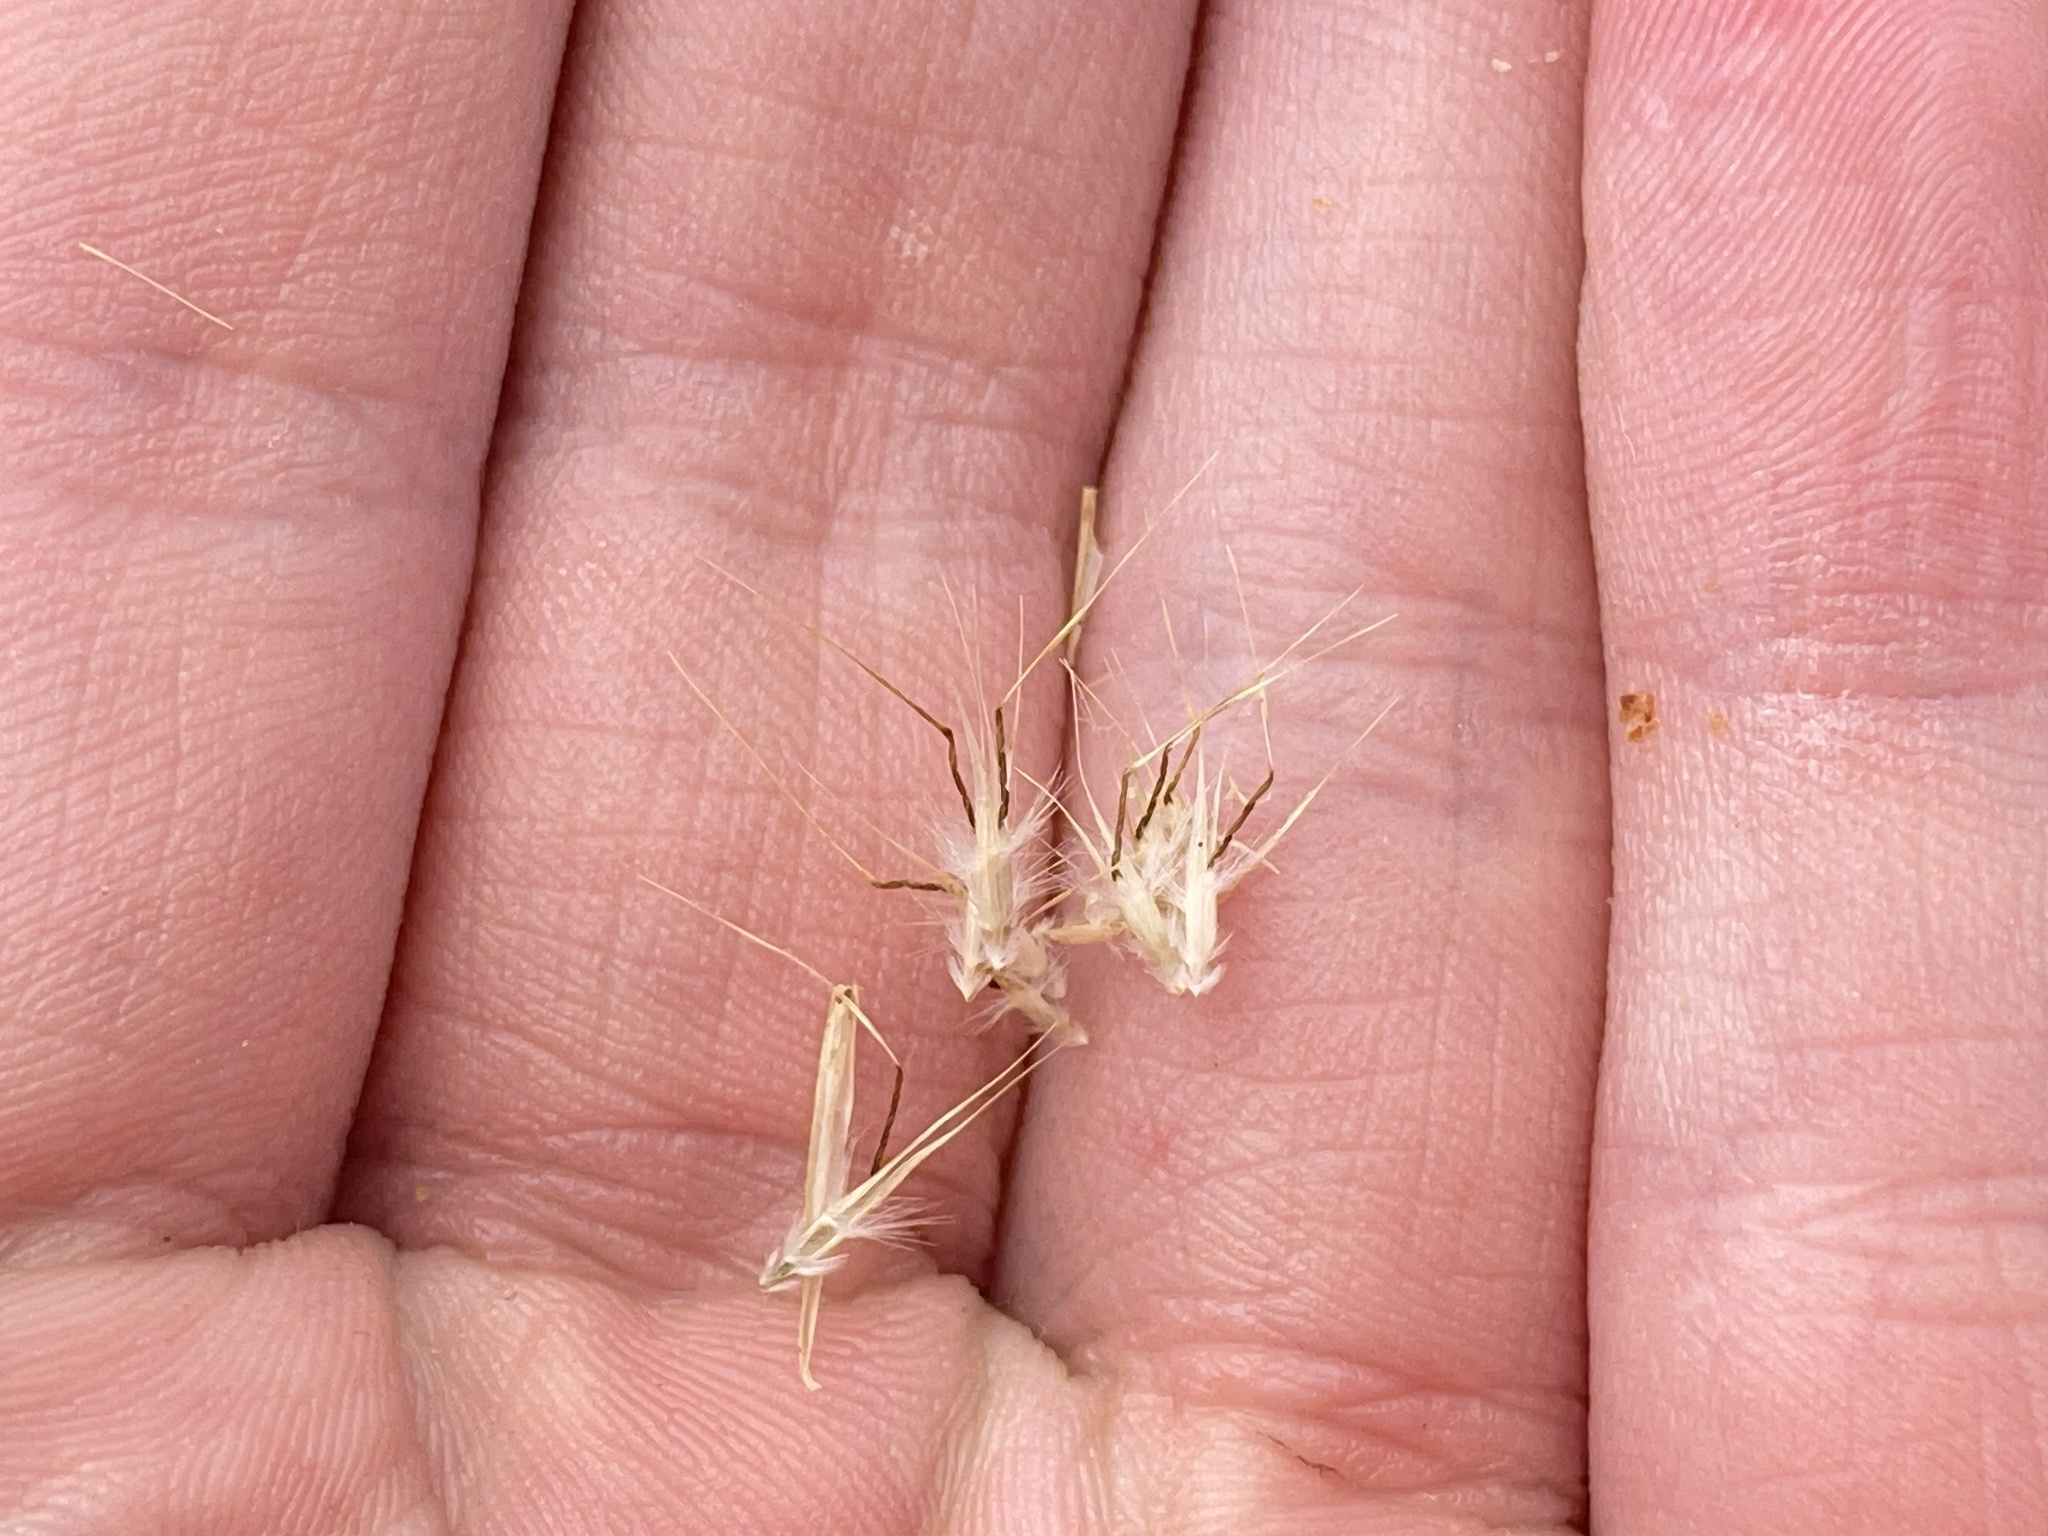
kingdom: Plantae
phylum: Tracheophyta
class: Liliopsida
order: Poales
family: Poaceae
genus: Rytidosperma
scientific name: Rytidosperma setaceum
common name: Small-flower wallaby grass
